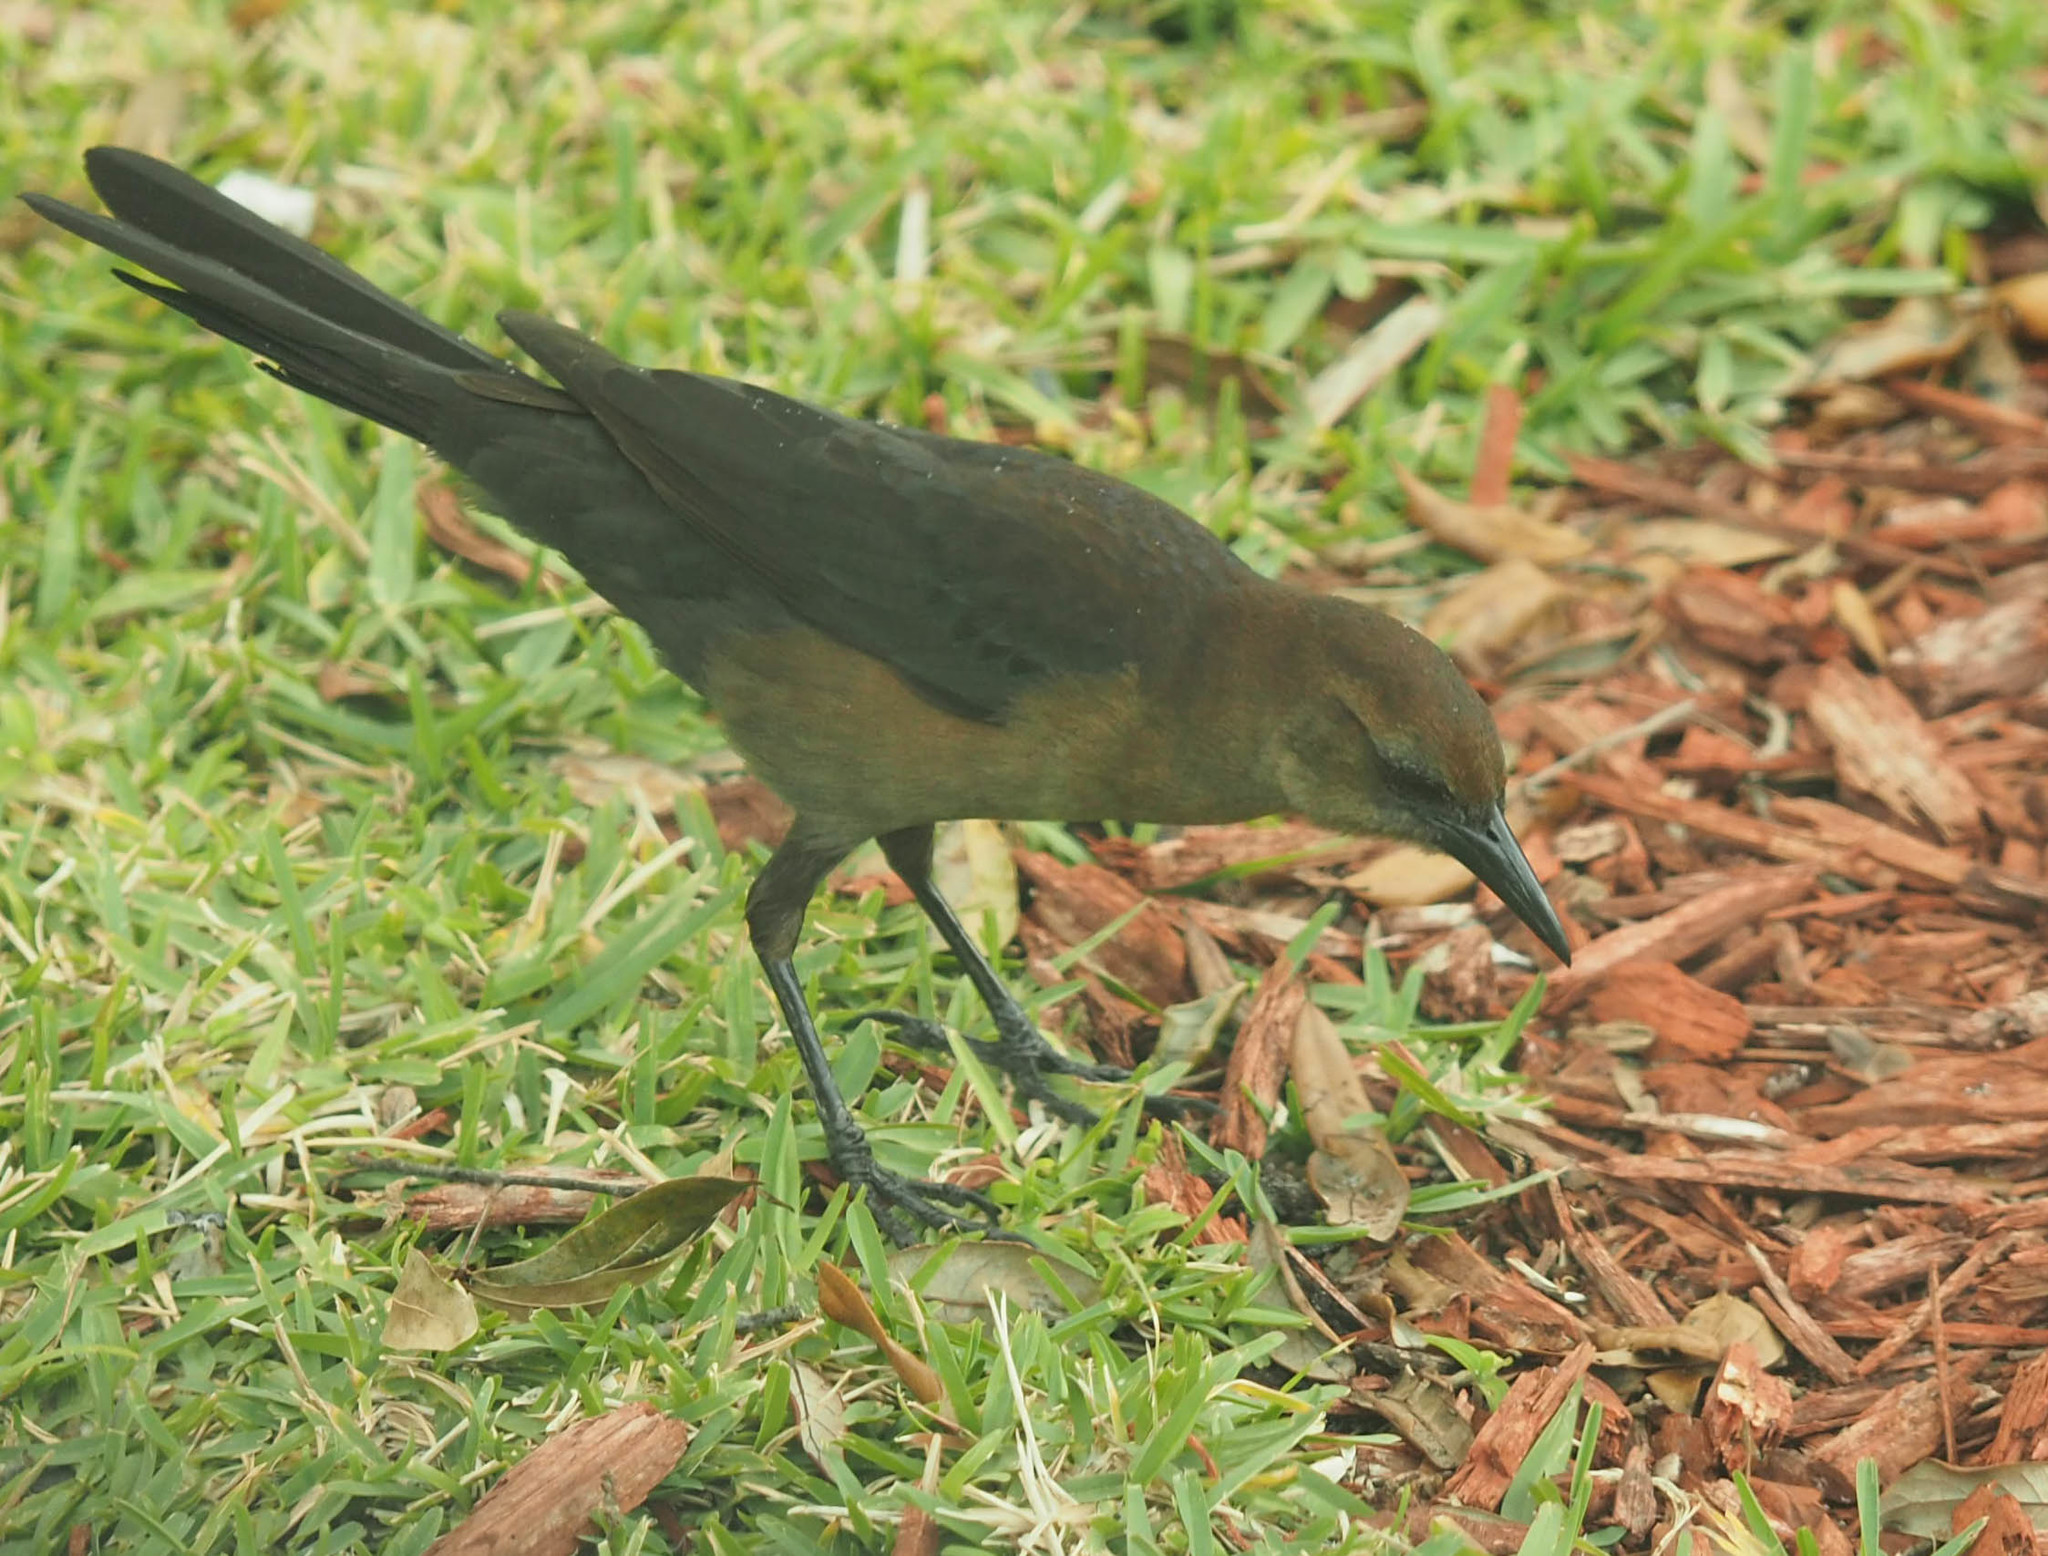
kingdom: Animalia
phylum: Chordata
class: Aves
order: Passeriformes
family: Icteridae
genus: Quiscalus
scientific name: Quiscalus major
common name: Boat-tailed grackle
